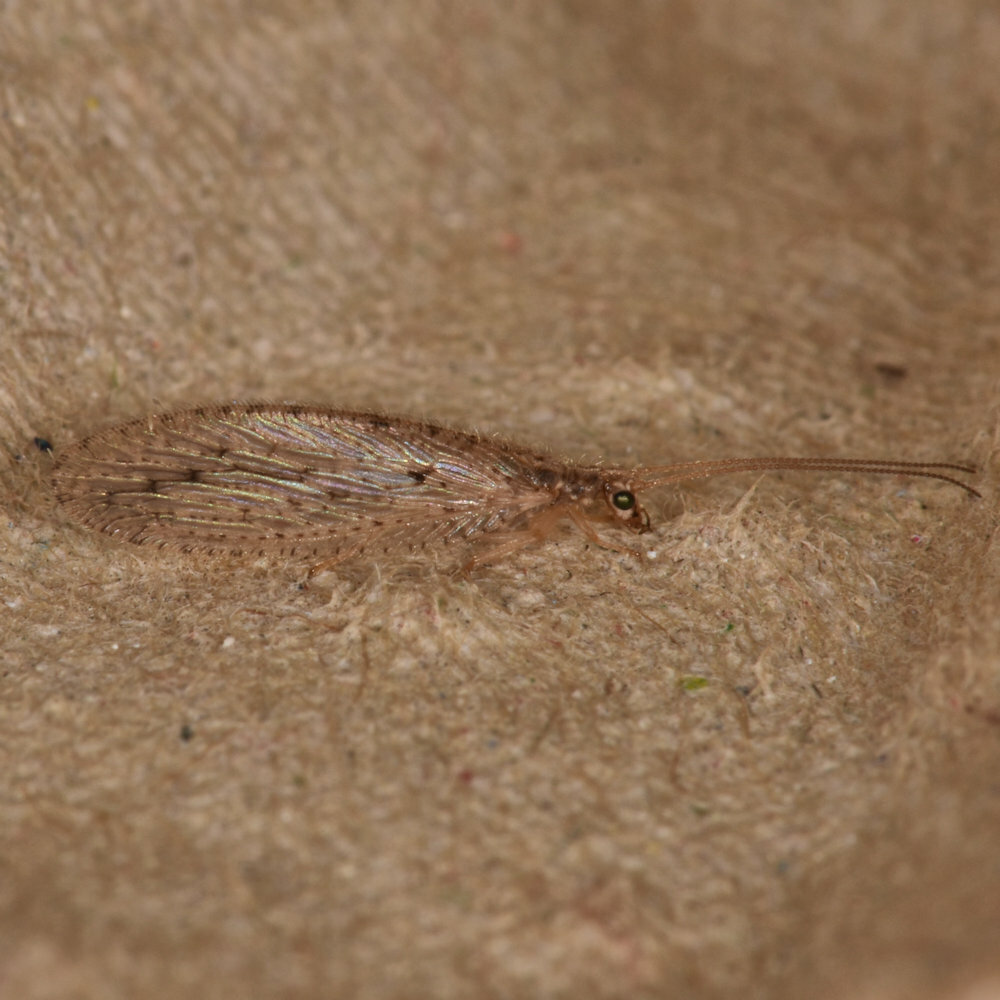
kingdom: Animalia
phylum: Arthropoda
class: Insecta
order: Neuroptera
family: Hemerobiidae
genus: Micromus
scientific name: Micromus subanticus
